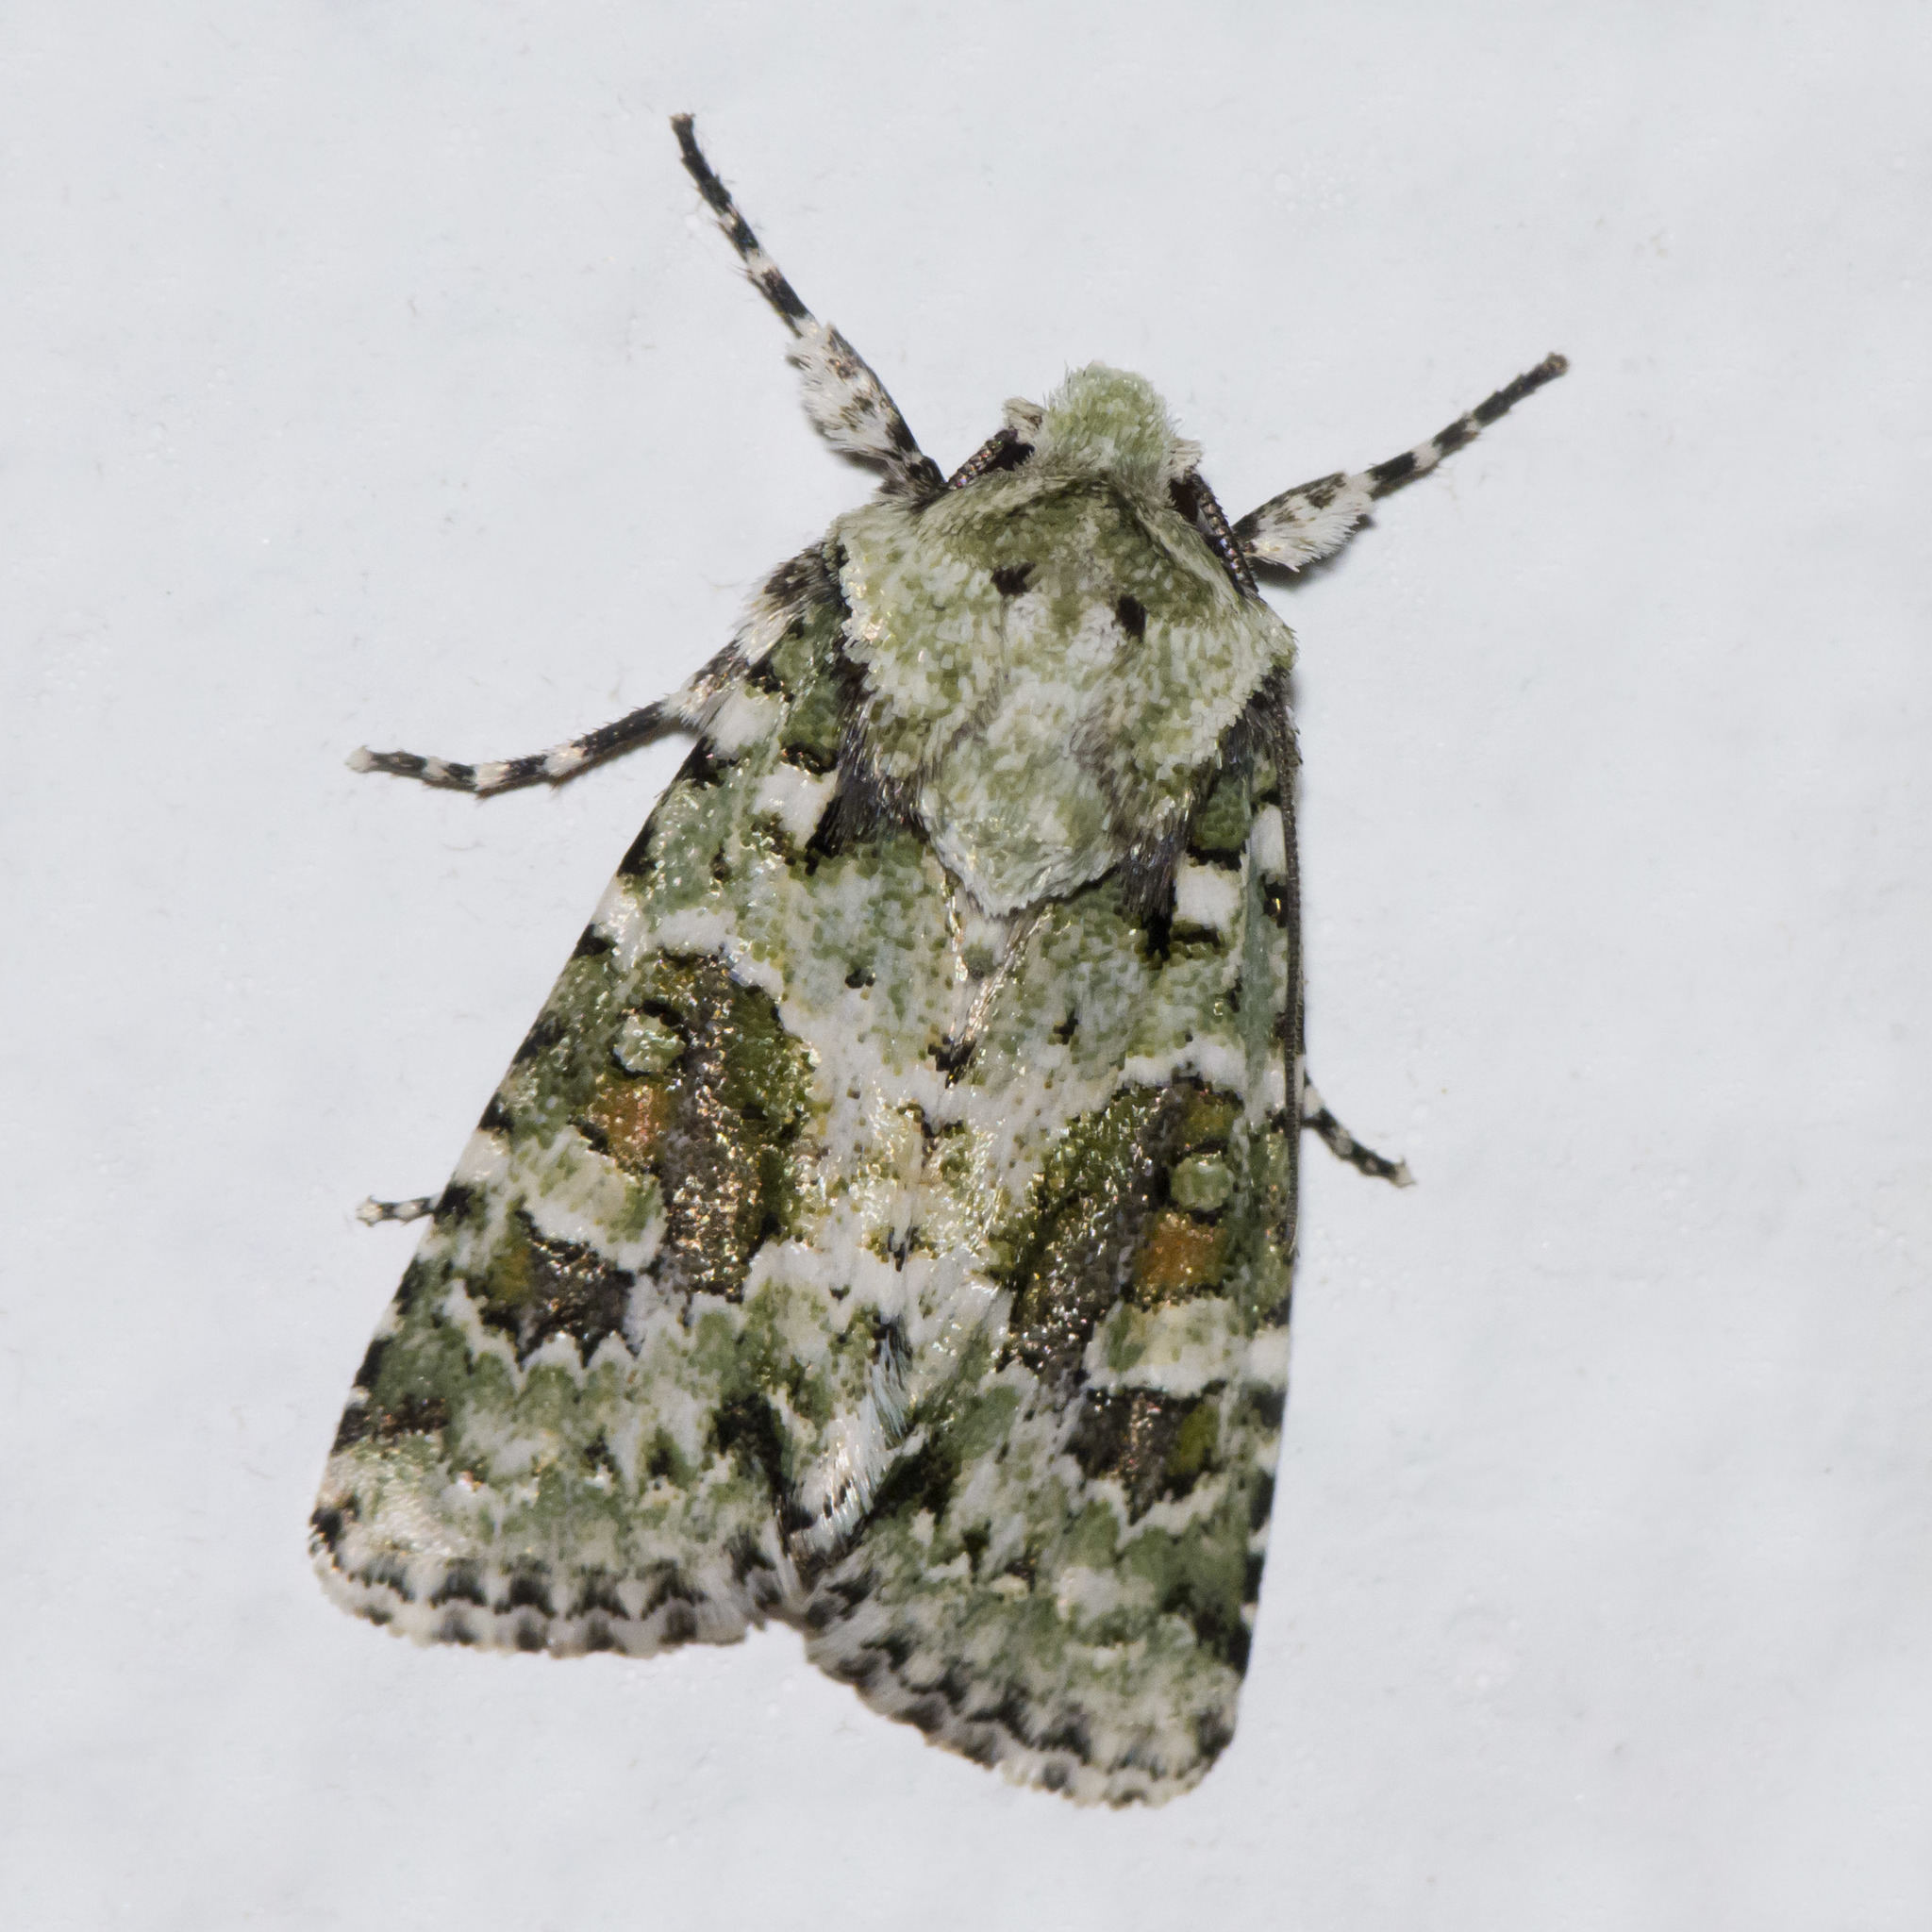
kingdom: Animalia
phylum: Arthropoda
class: Insecta
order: Lepidoptera
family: Noctuidae
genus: Lacinipolia
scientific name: Lacinipolia laudabilis
